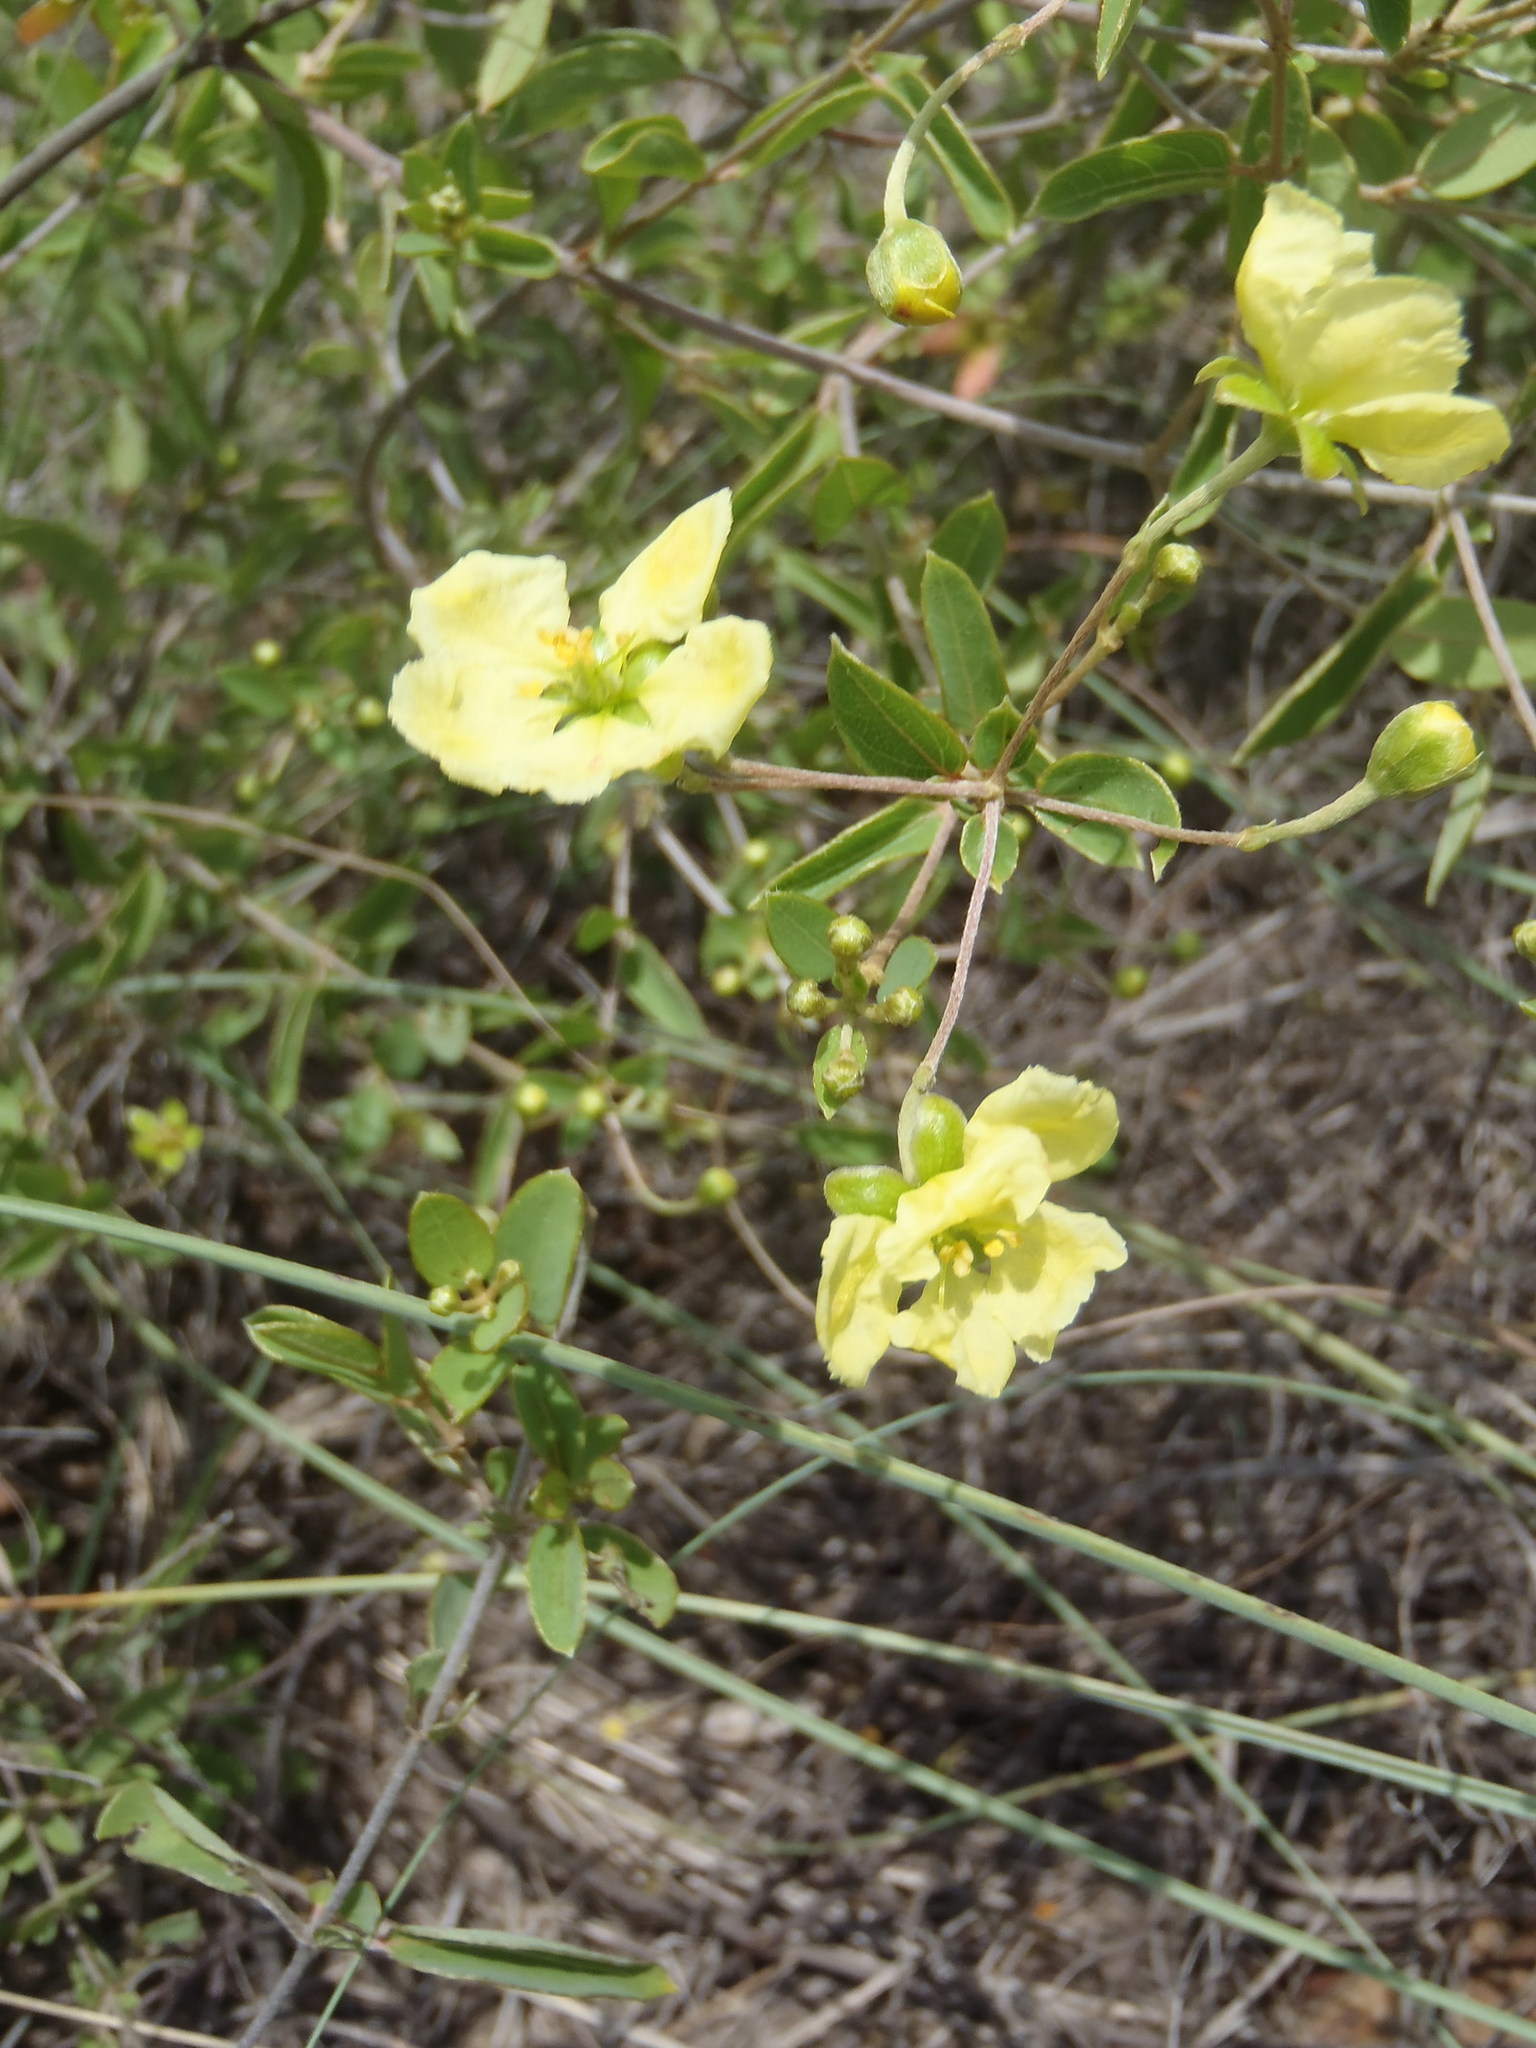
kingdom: Plantae
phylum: Tracheophyta
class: Magnoliopsida
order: Malpighiales
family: Malpighiaceae
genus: Sphedamnocarpus
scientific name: Sphedamnocarpus galphimiifolius
